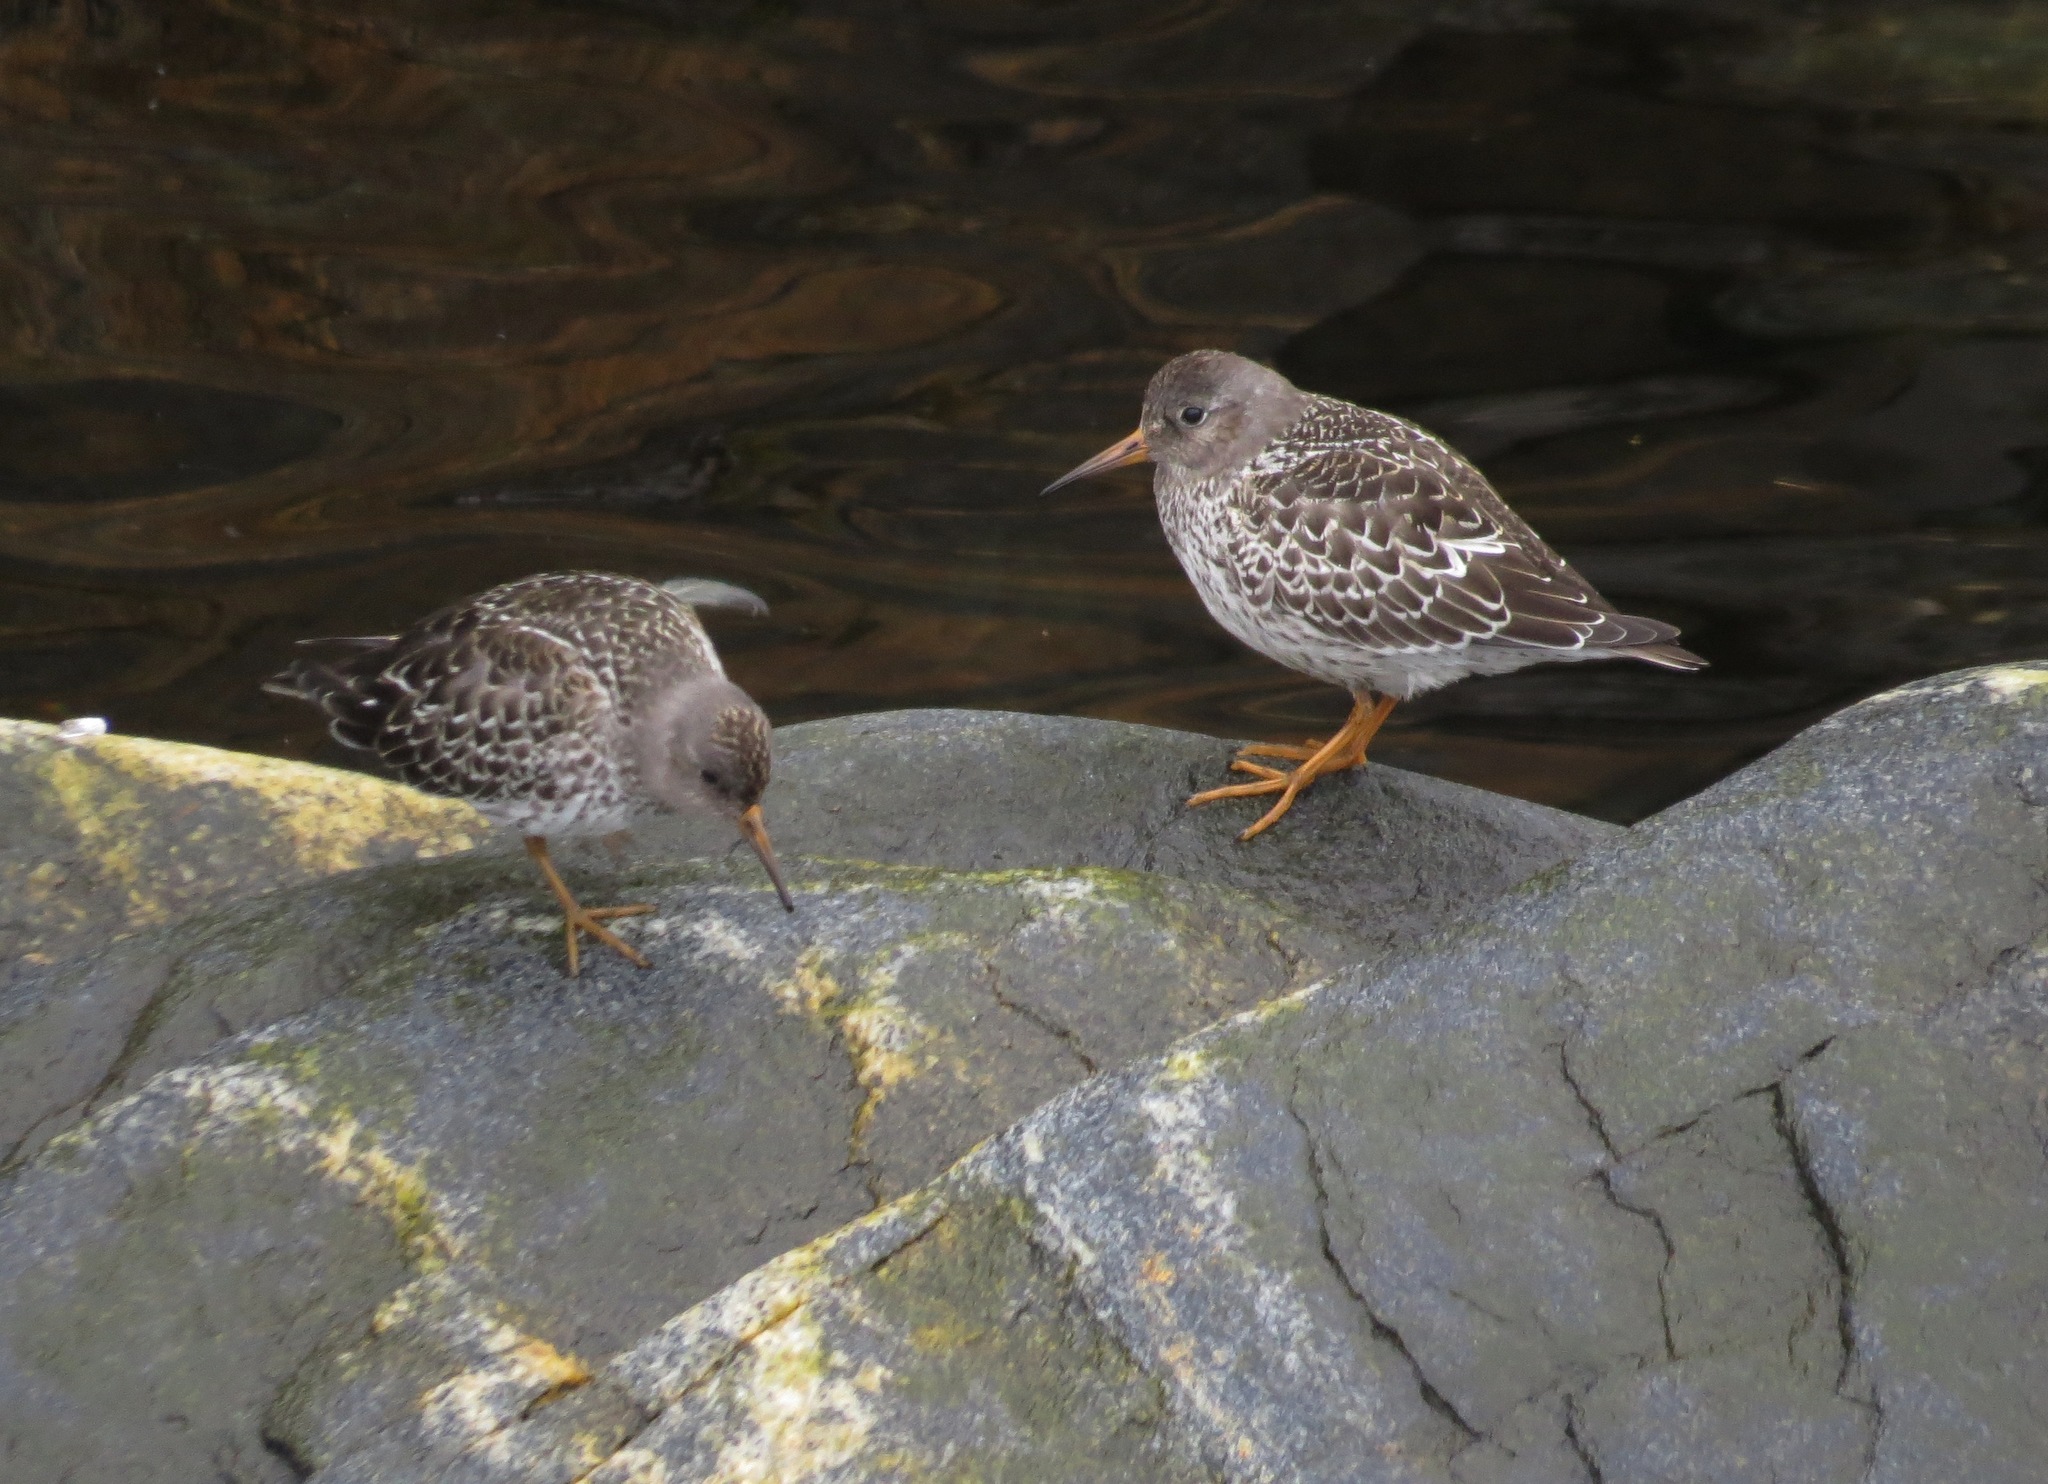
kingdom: Animalia
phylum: Chordata
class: Aves
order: Charadriiformes
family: Scolopacidae
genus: Calidris
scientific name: Calidris maritima
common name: Purple sandpiper
